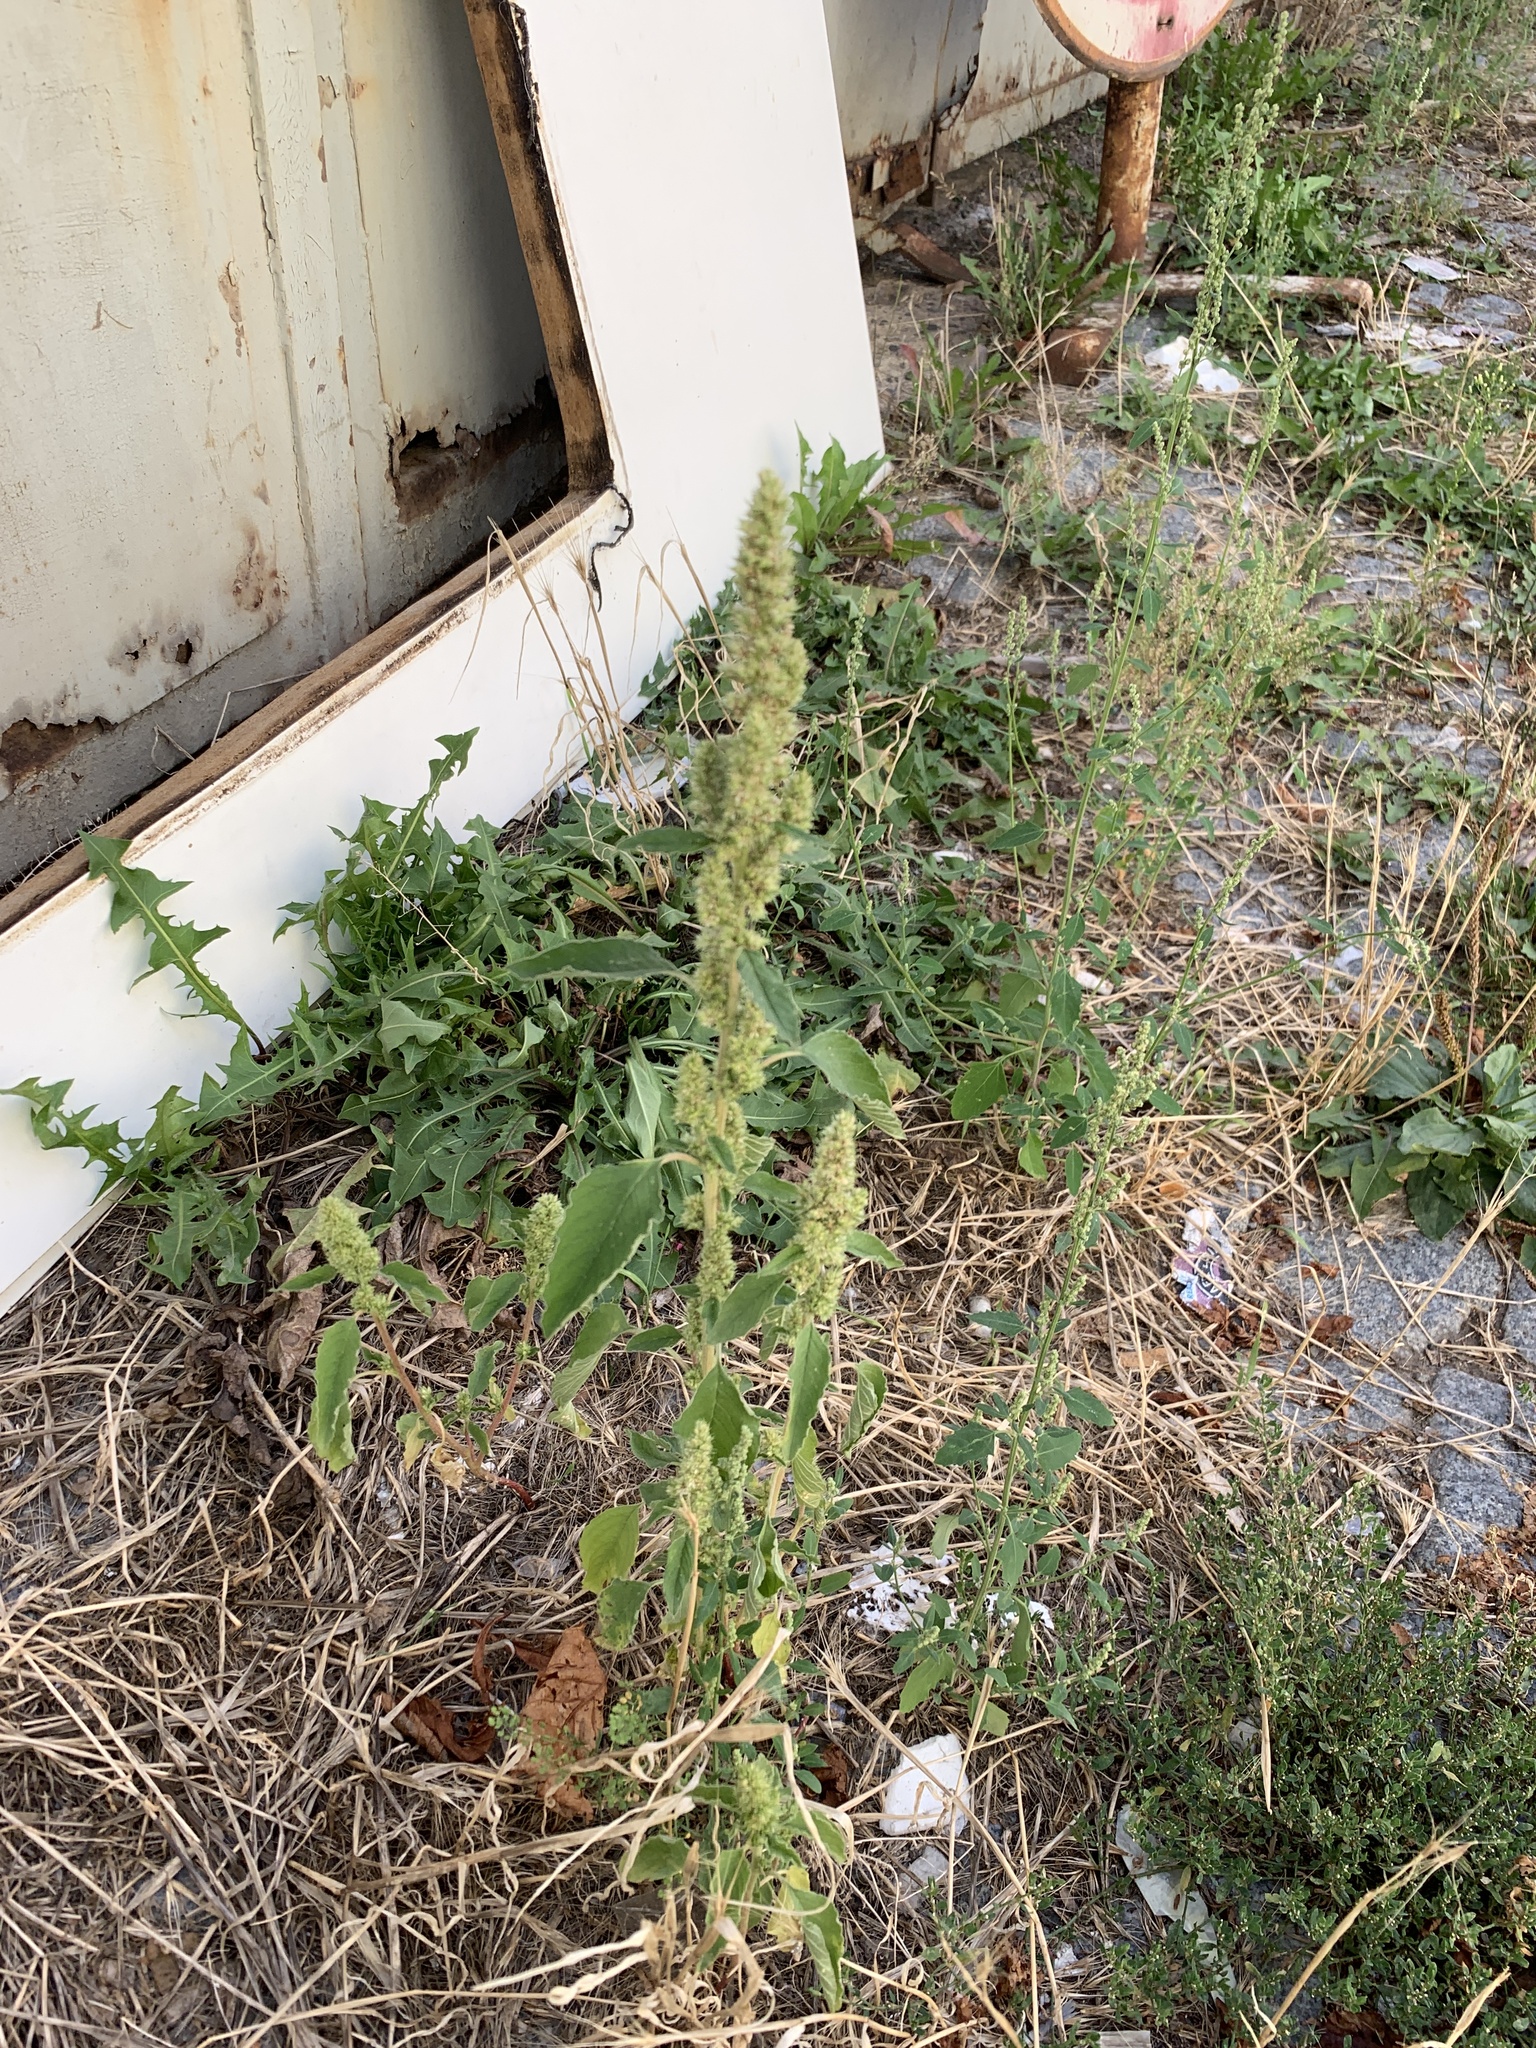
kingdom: Plantae
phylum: Tracheophyta
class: Magnoliopsida
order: Caryophyllales
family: Amaranthaceae
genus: Amaranthus
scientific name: Amaranthus retroflexus
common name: Redroot amaranth
